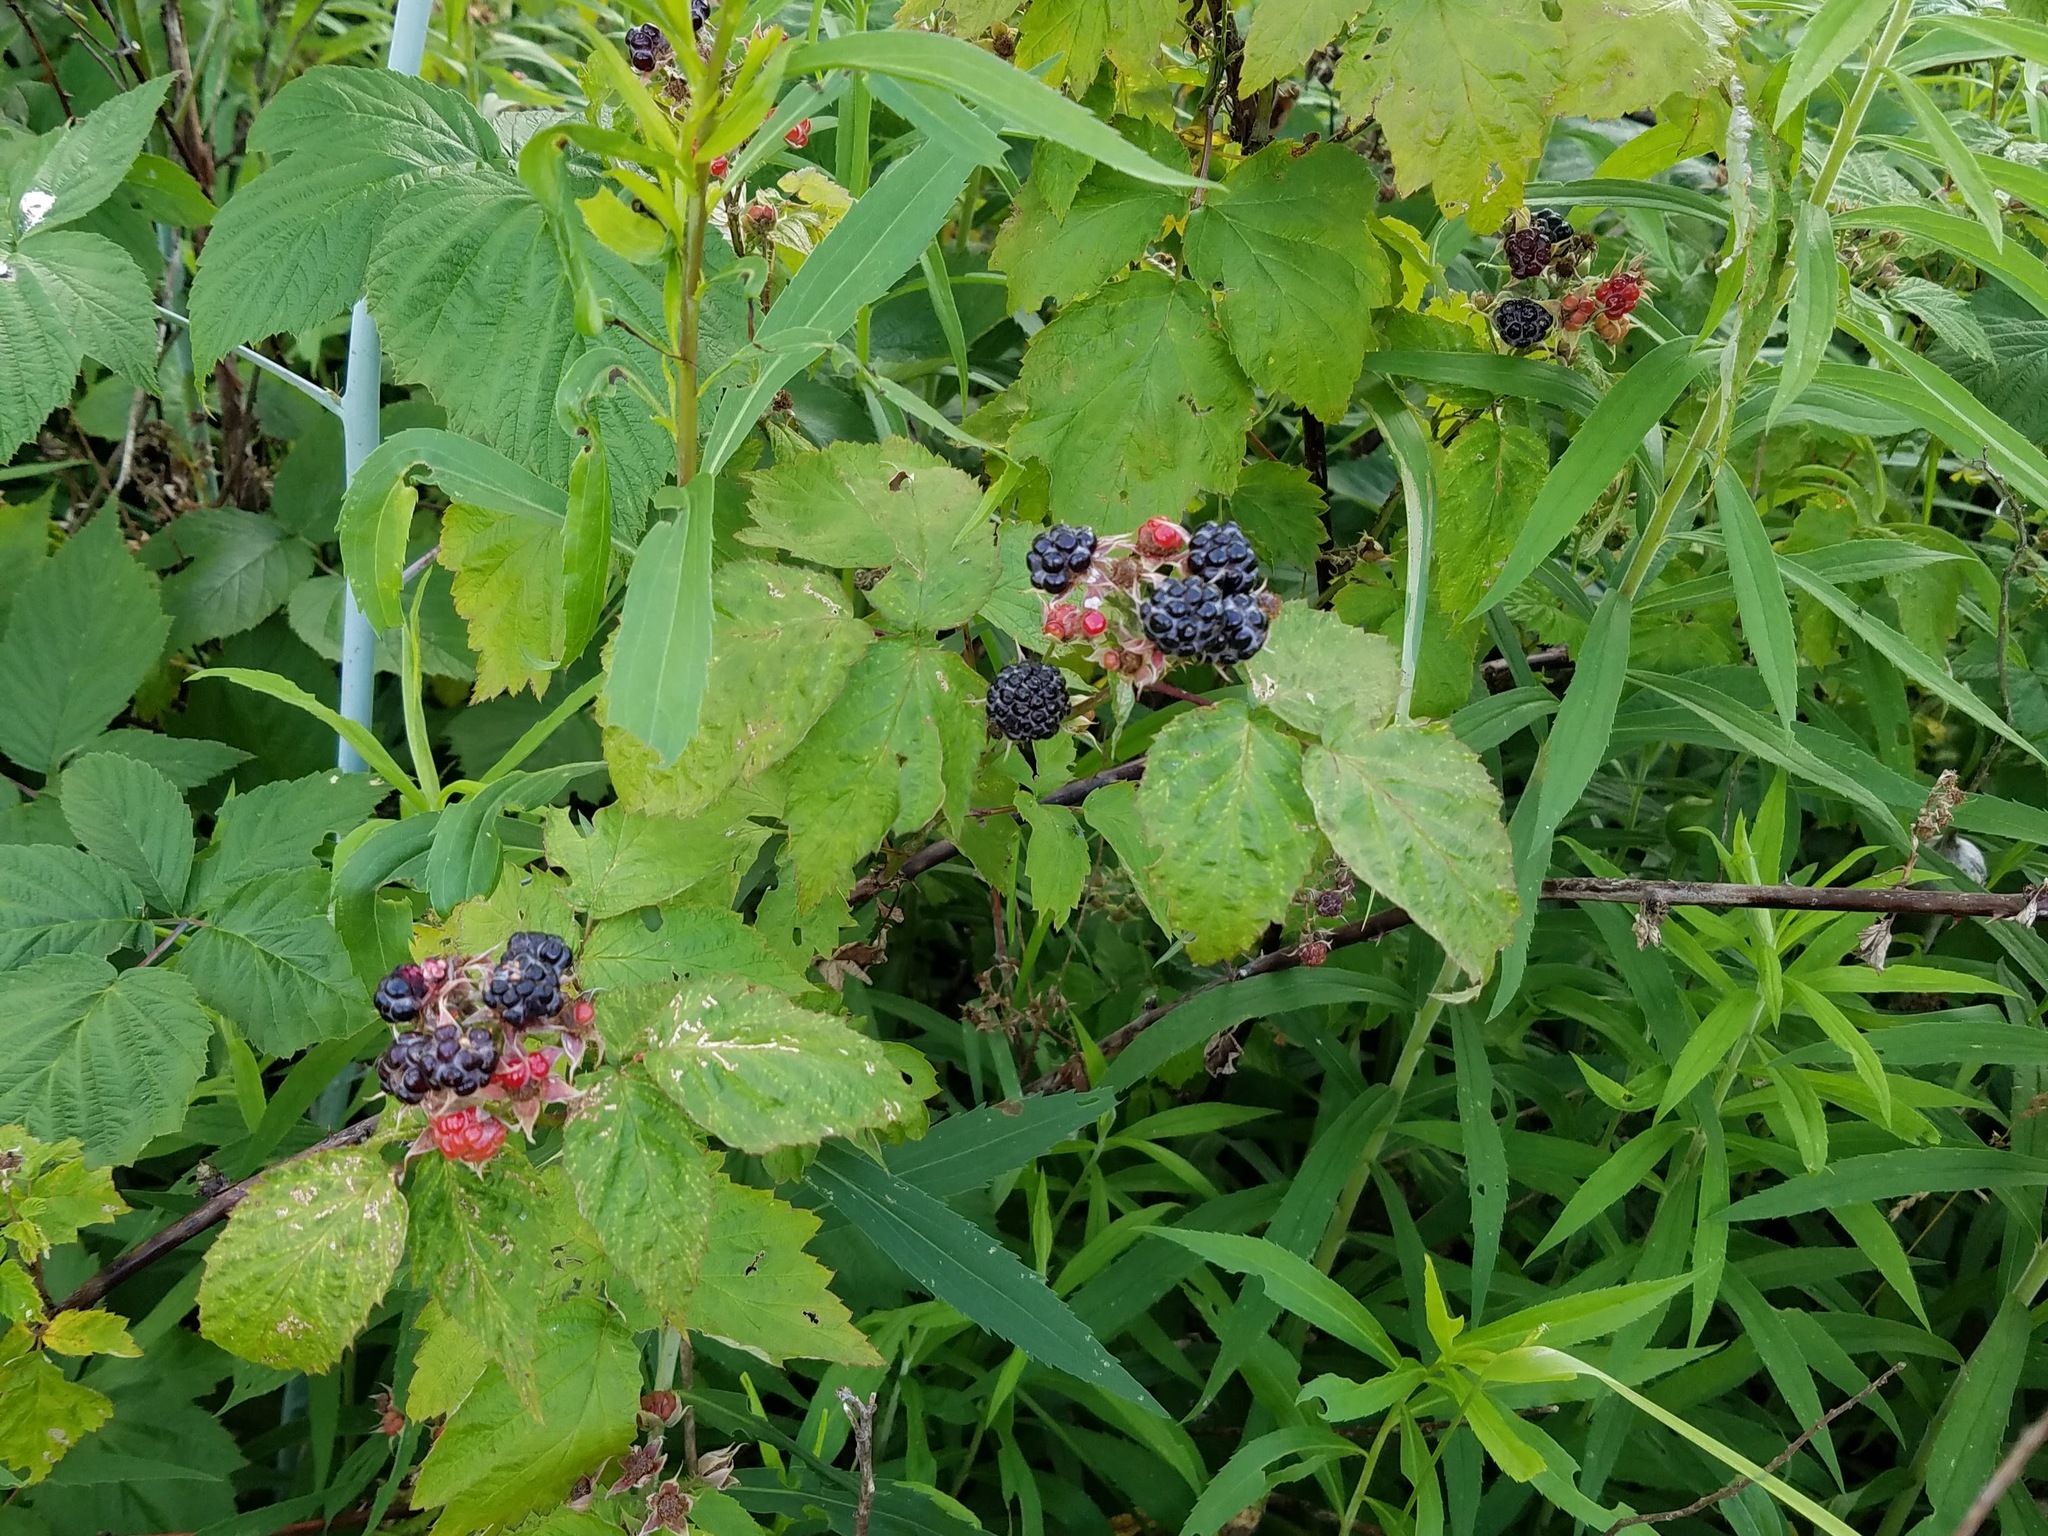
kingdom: Plantae
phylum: Tracheophyta
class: Magnoliopsida
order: Rosales
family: Rosaceae
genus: Rubus
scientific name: Rubus occidentalis
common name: Black raspberry
